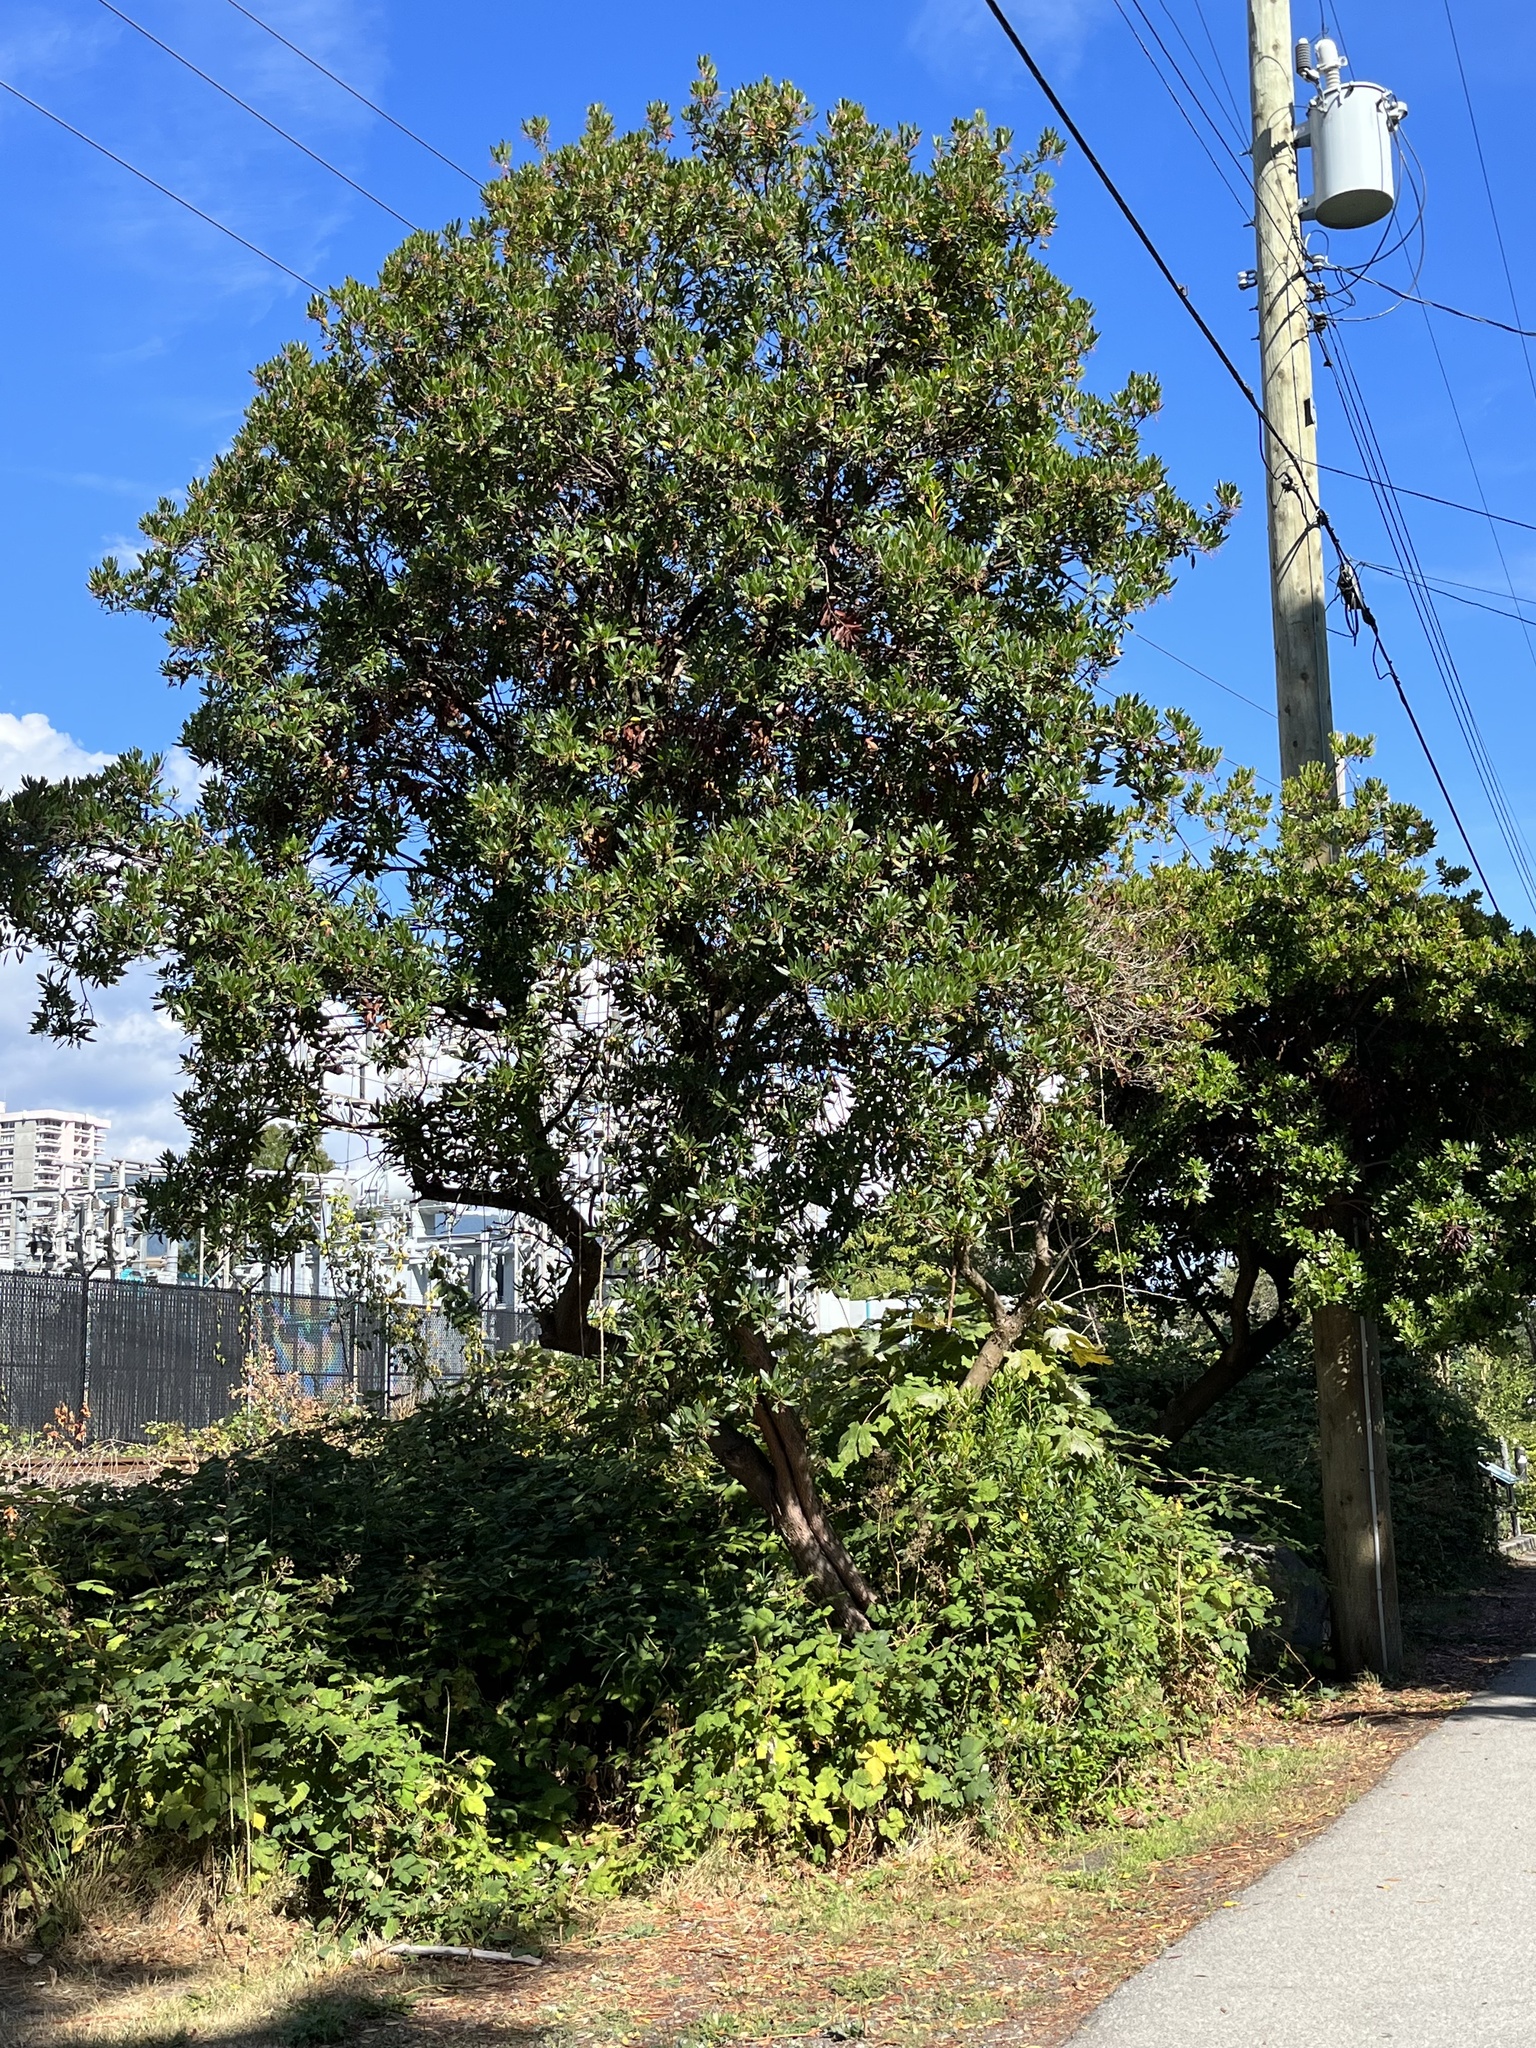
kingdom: Plantae
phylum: Tracheophyta
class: Magnoliopsida
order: Ericales
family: Ericaceae
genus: Arbutus
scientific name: Arbutus menziesii
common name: Pacific madrone
